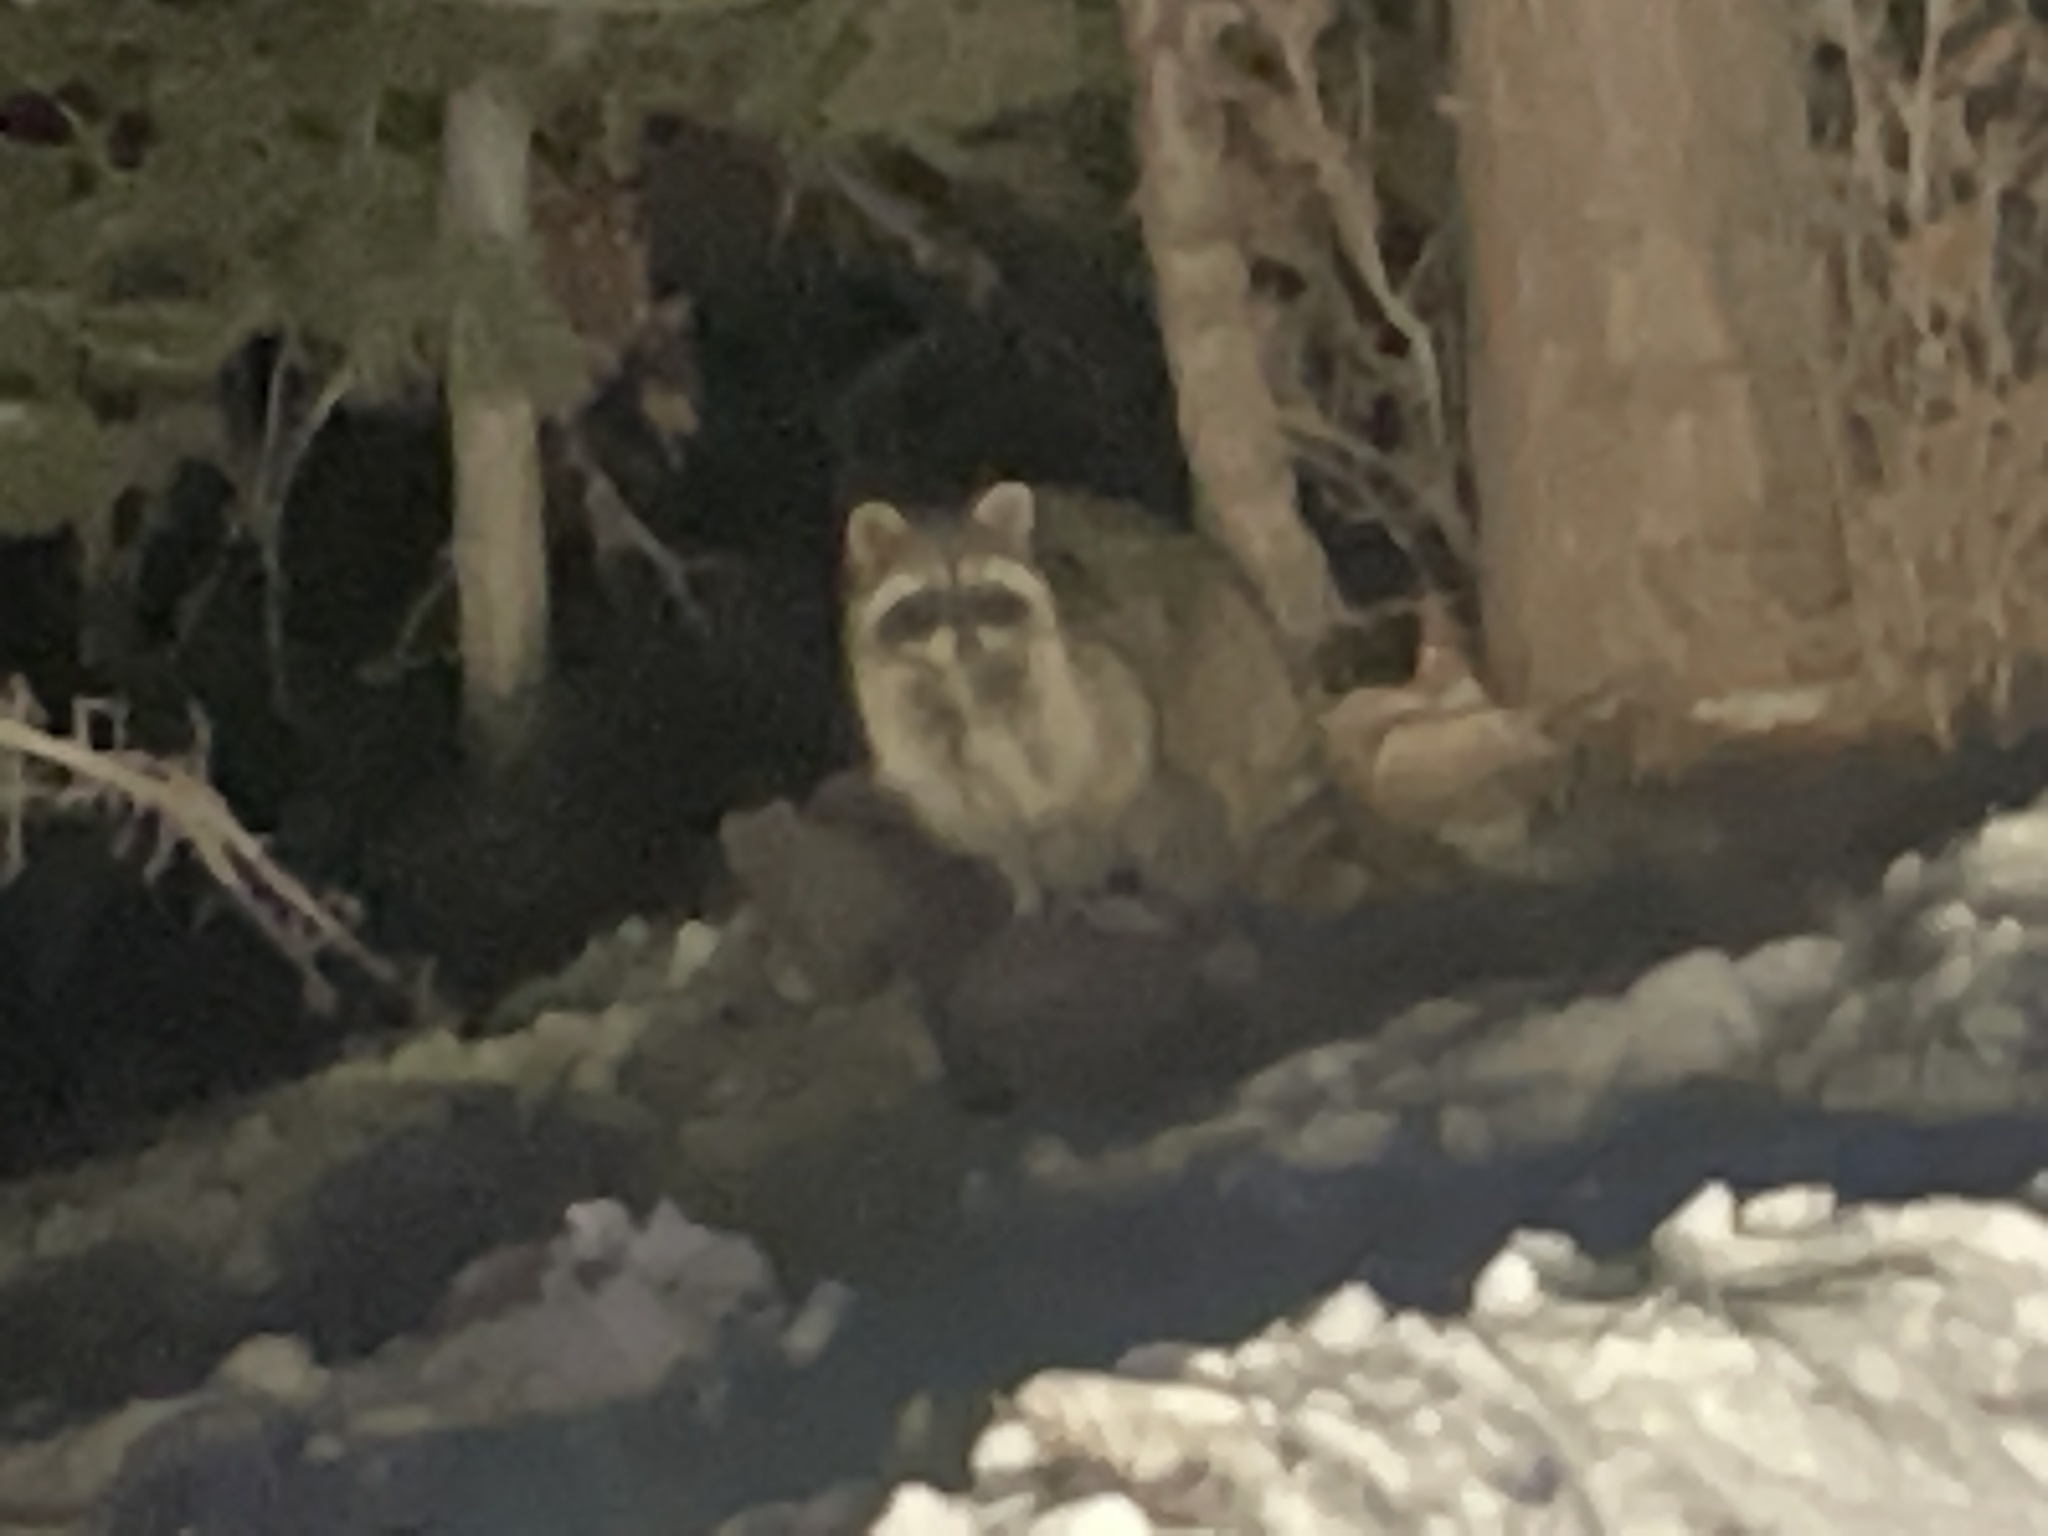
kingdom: Animalia
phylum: Chordata
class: Mammalia
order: Carnivora
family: Procyonidae
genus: Procyon
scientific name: Procyon lotor
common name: Raccoon
